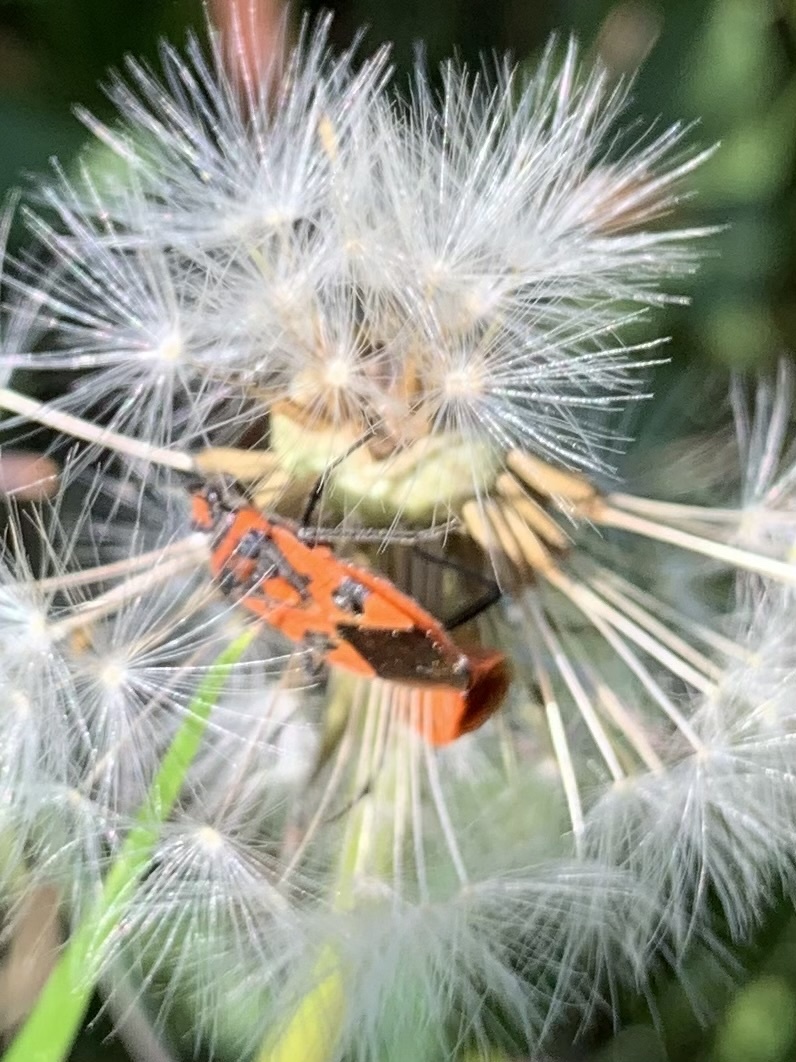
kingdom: Animalia
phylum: Arthropoda
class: Insecta
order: Hemiptera
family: Rhopalidae
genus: Corizus
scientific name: Corizus hyoscyami
